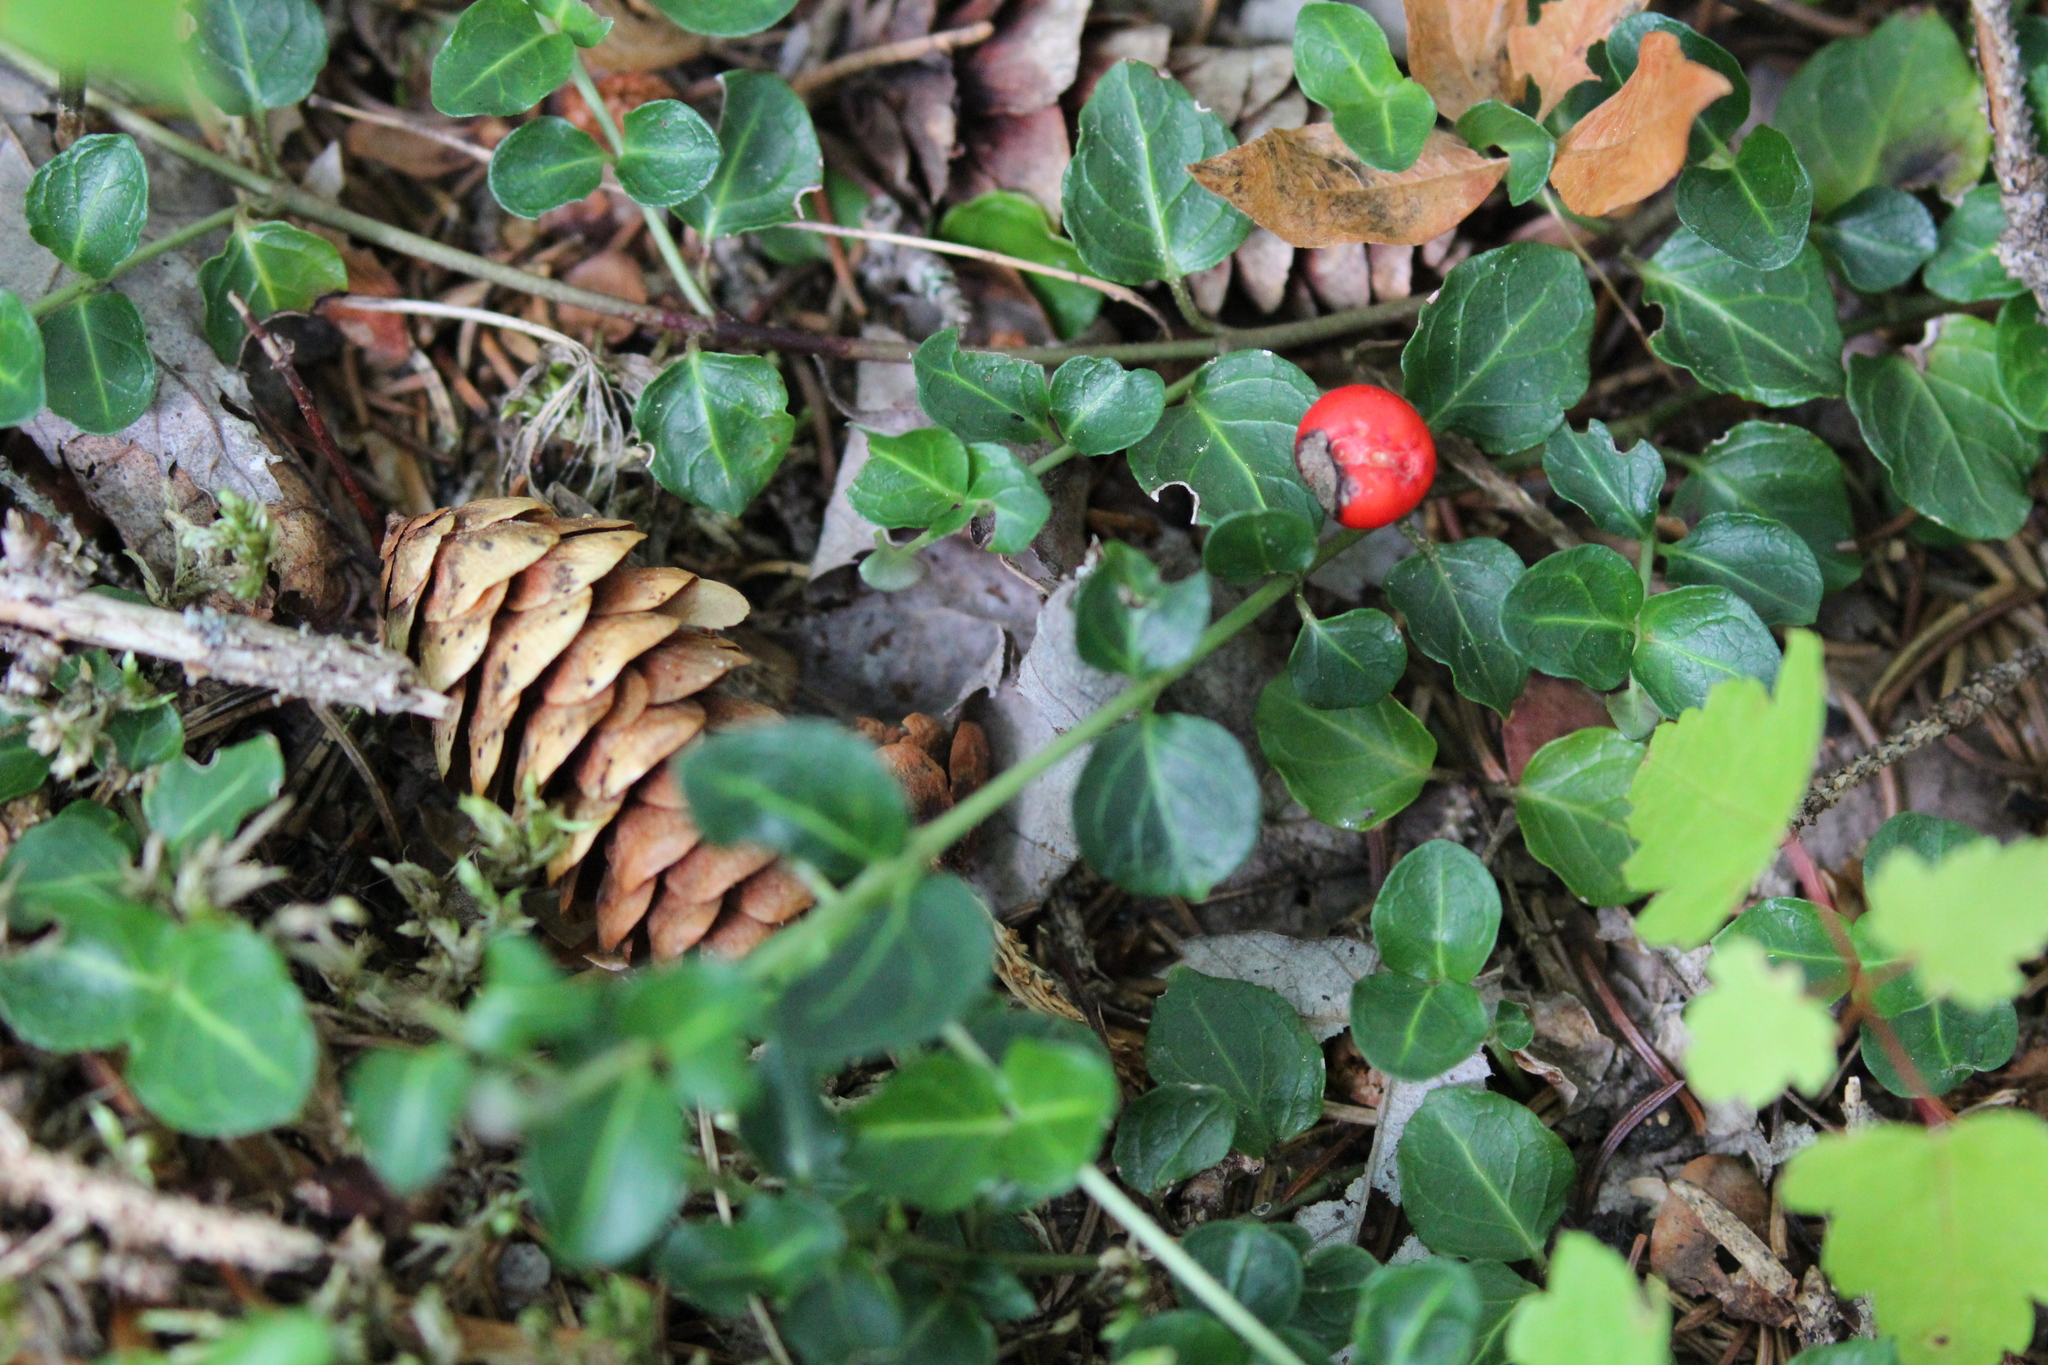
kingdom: Plantae
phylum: Tracheophyta
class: Magnoliopsida
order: Gentianales
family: Rubiaceae
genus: Mitchella
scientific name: Mitchella repens
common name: Partridge-berry
